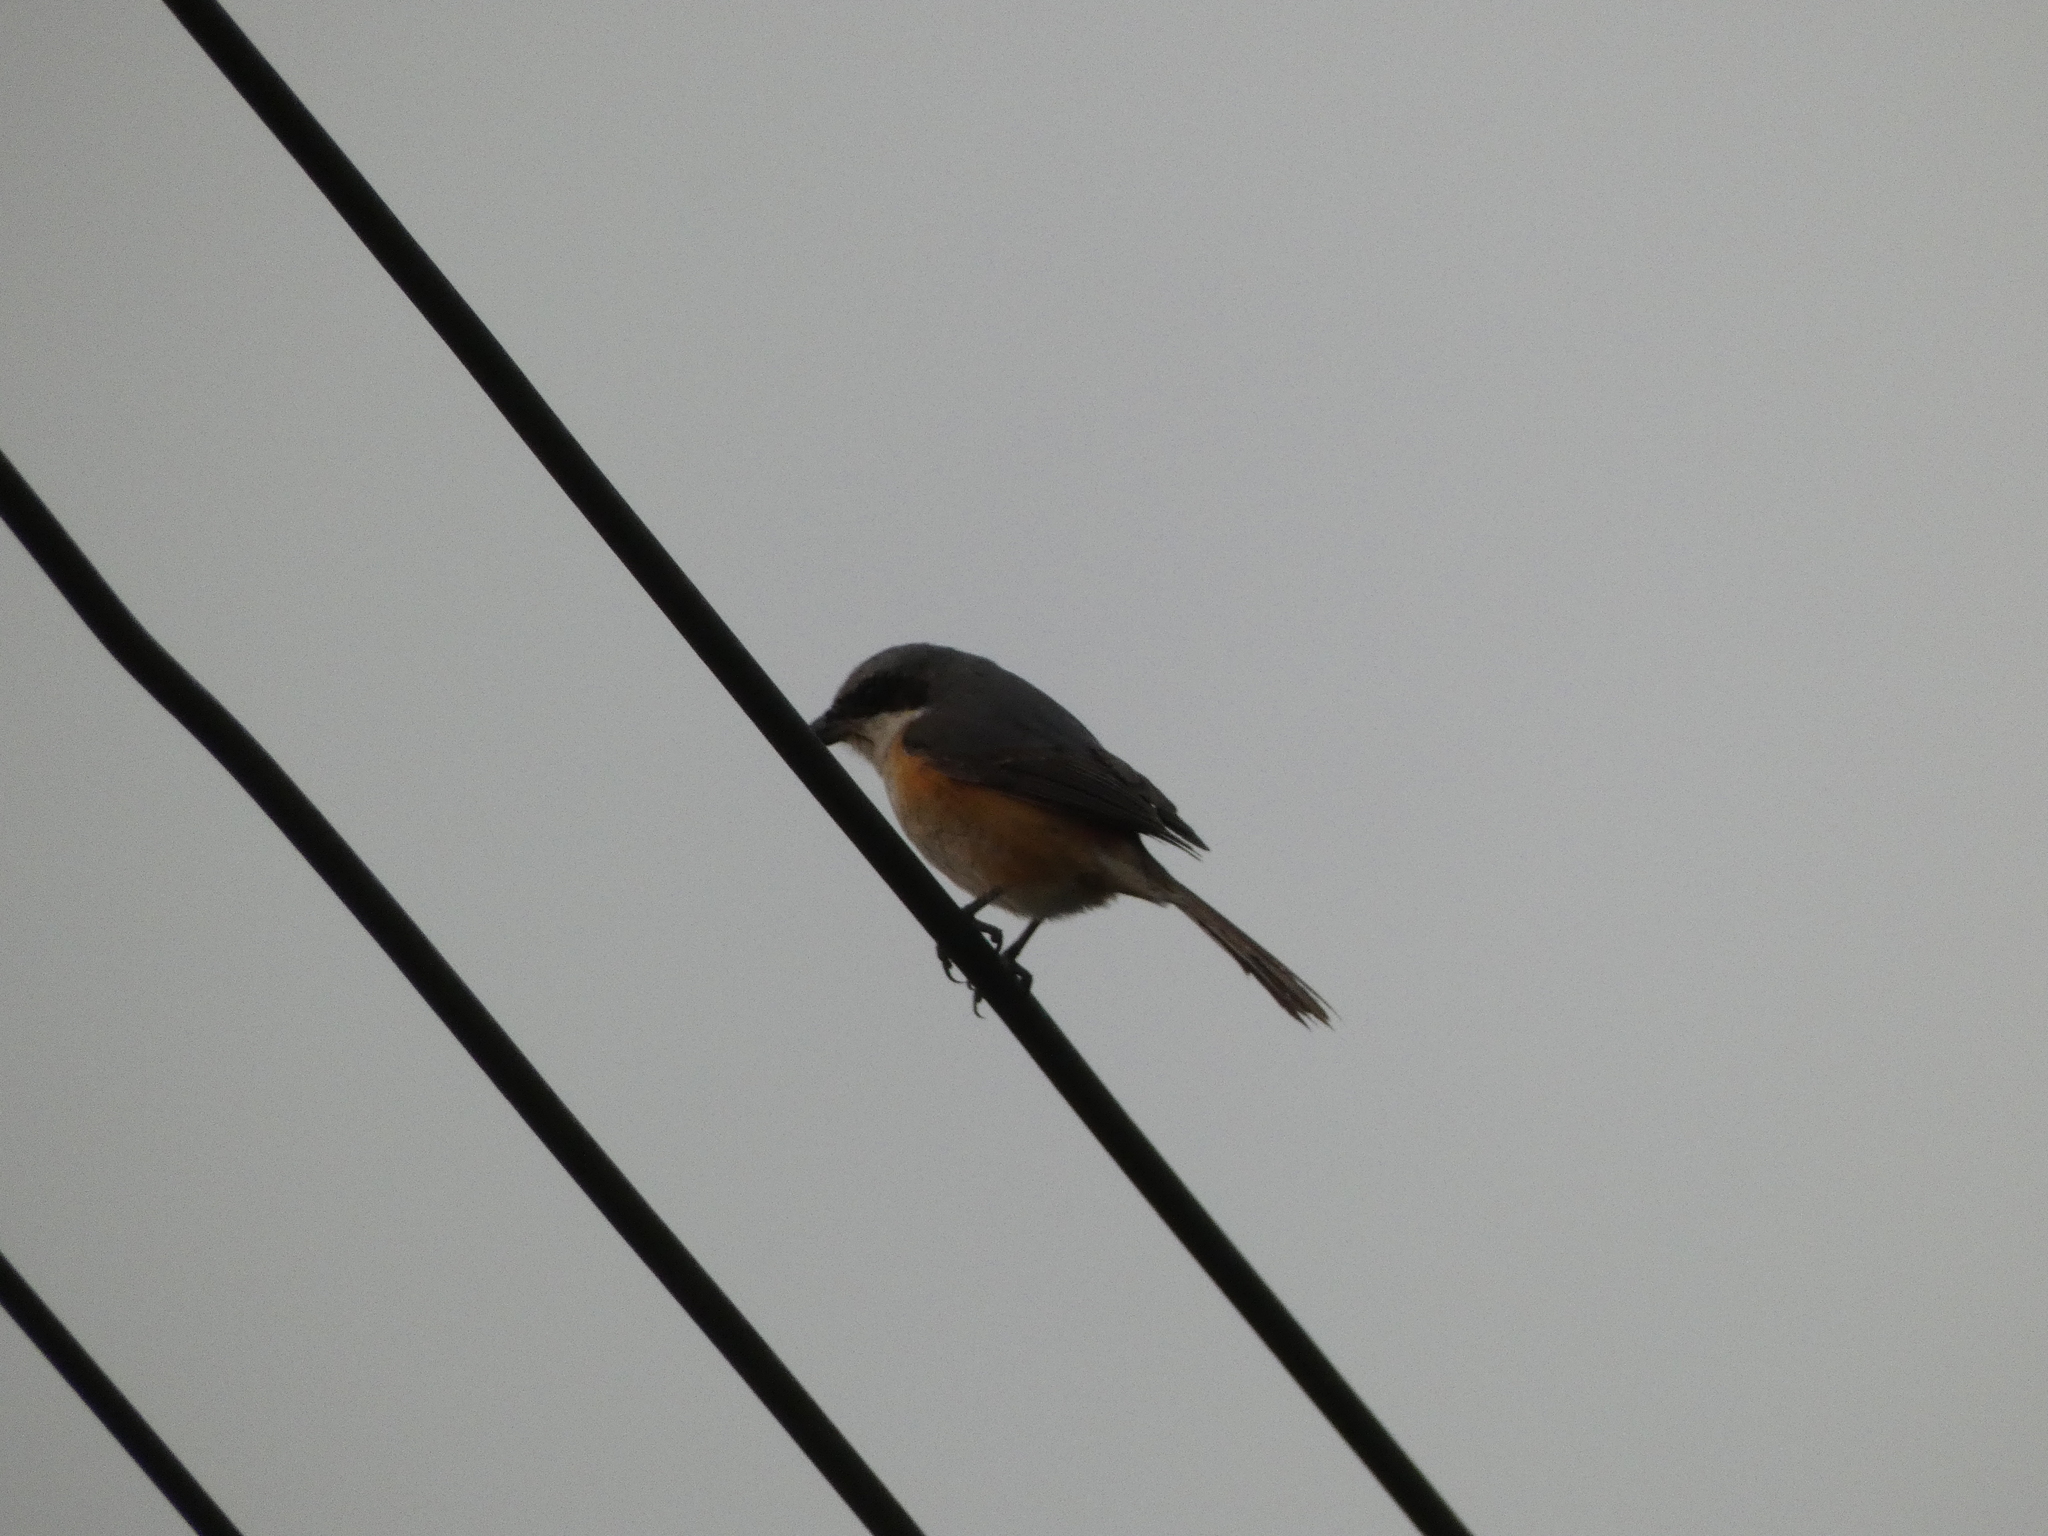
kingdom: Animalia
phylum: Chordata
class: Aves
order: Passeriformes
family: Laniidae
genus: Lanius
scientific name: Lanius tephronotus
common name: Grey-backed shrike
